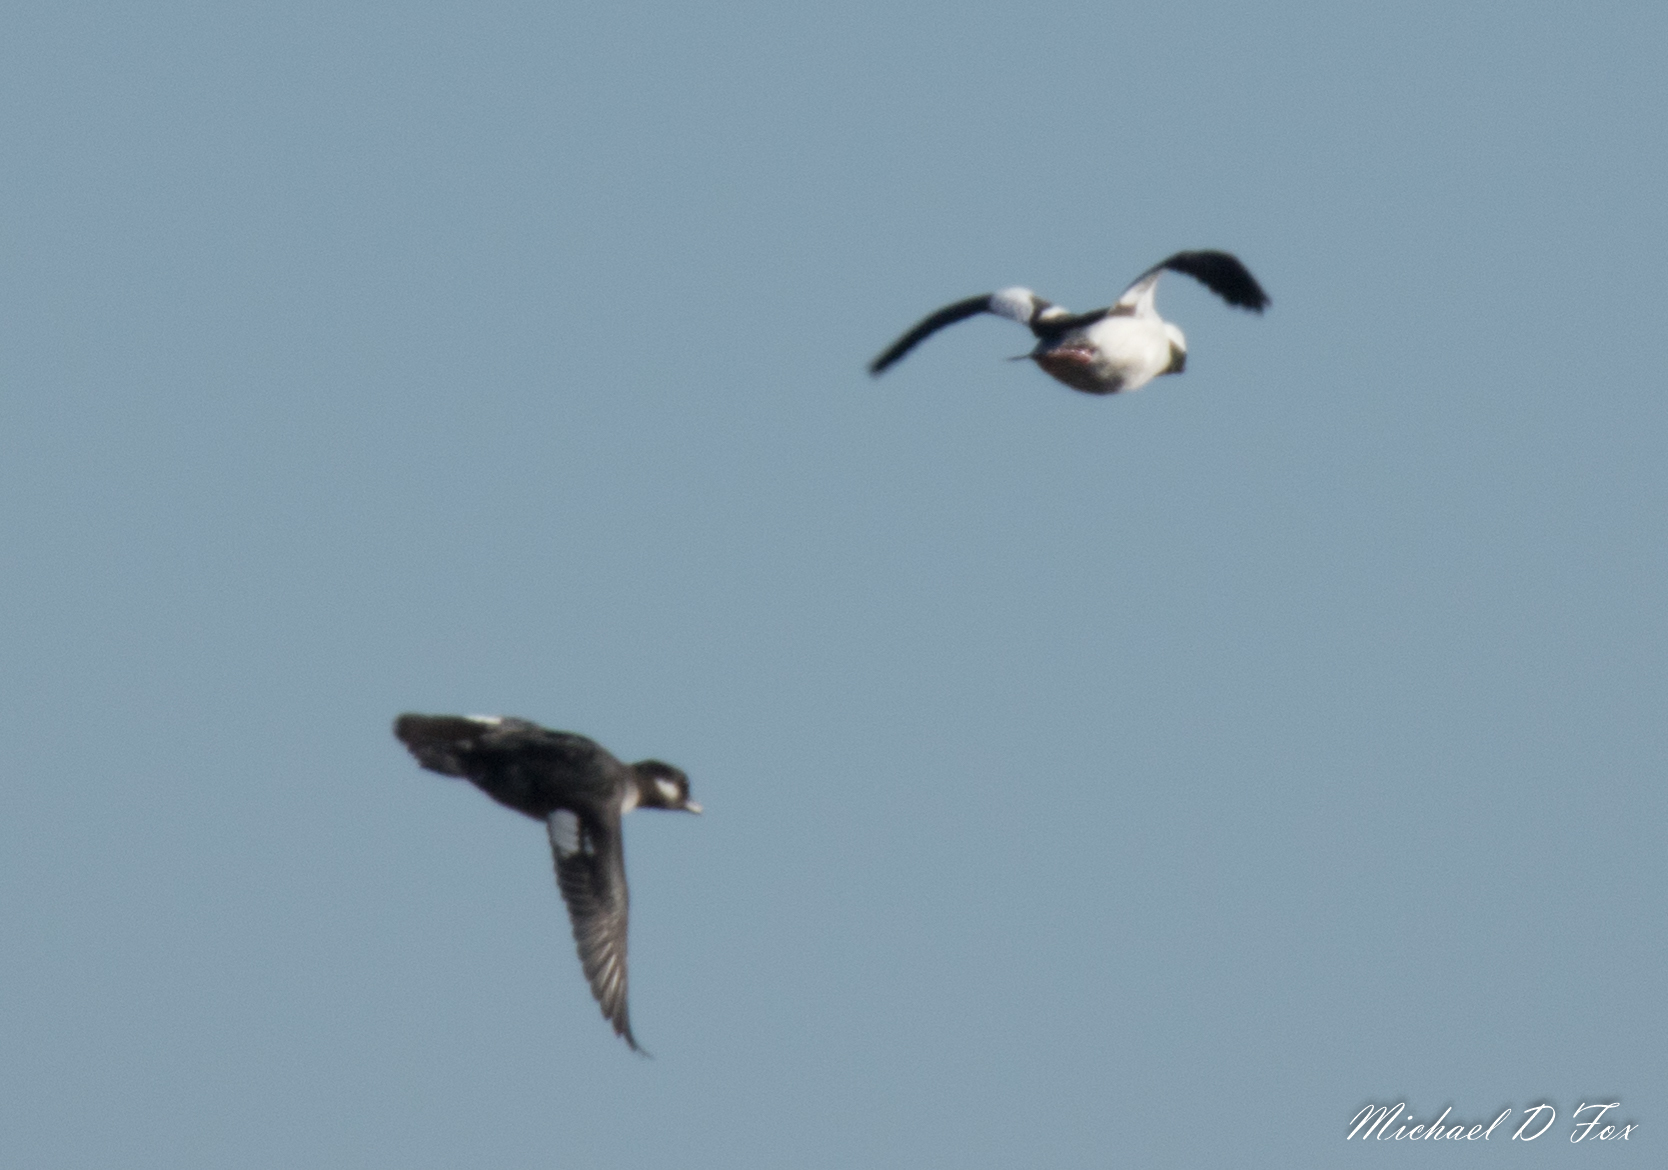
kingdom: Animalia
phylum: Chordata
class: Aves
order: Anseriformes
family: Anatidae
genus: Bucephala
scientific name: Bucephala albeola
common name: Bufflehead
